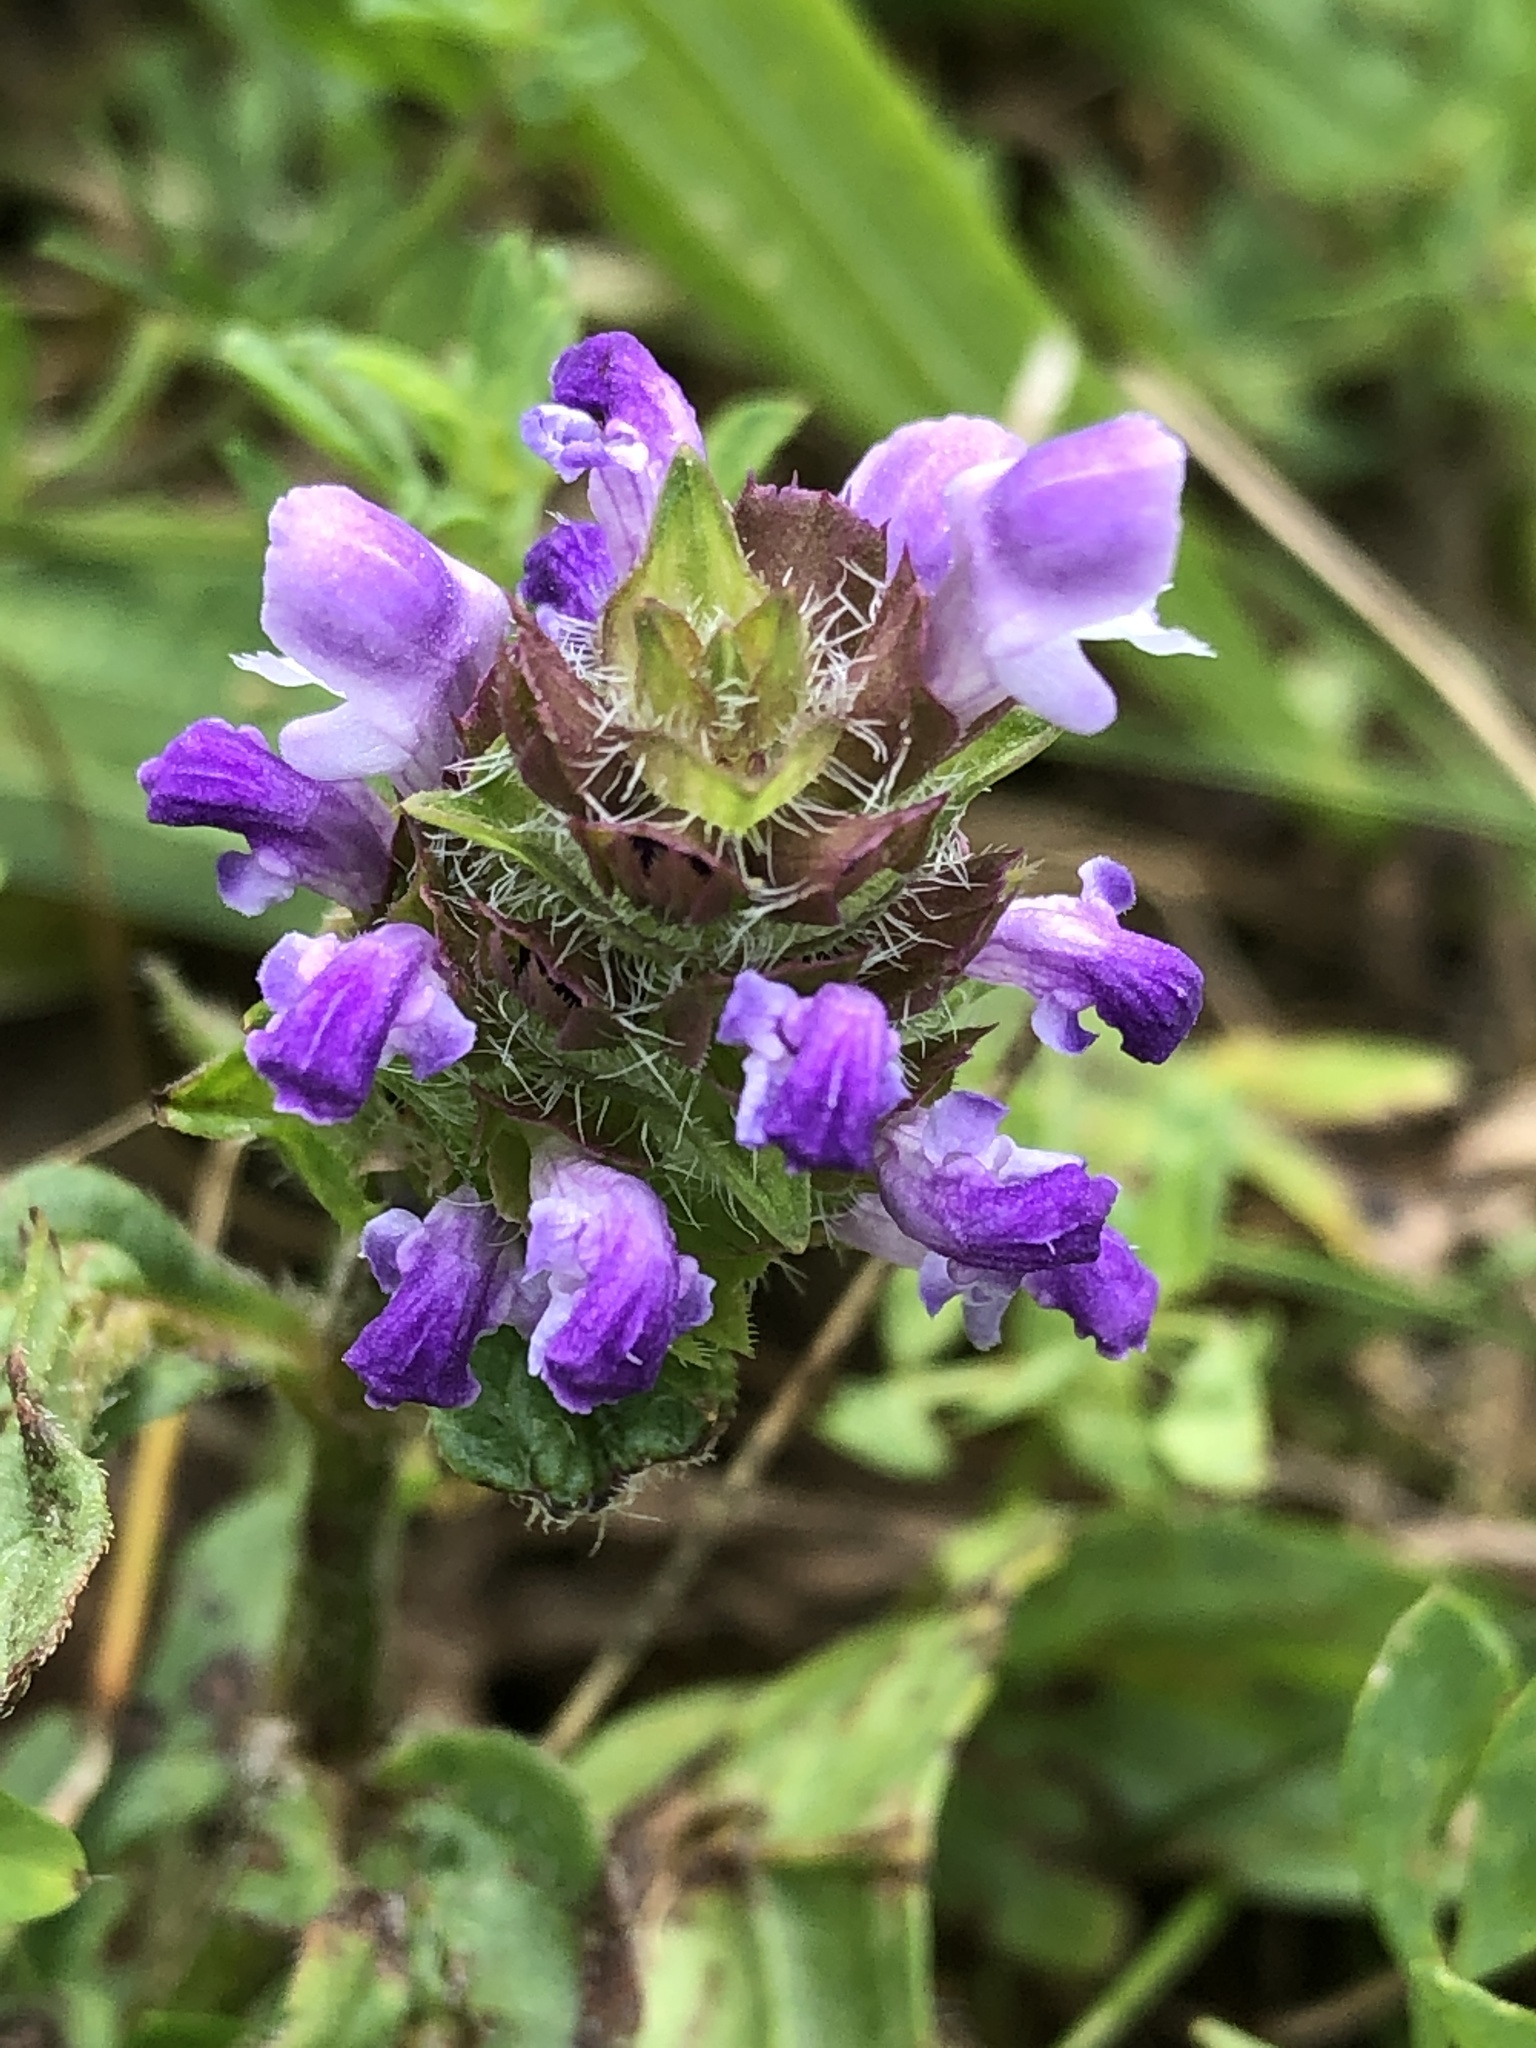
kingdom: Plantae
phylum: Tracheophyta
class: Magnoliopsida
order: Lamiales
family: Lamiaceae
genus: Prunella
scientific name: Prunella vulgaris
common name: Heal-all
